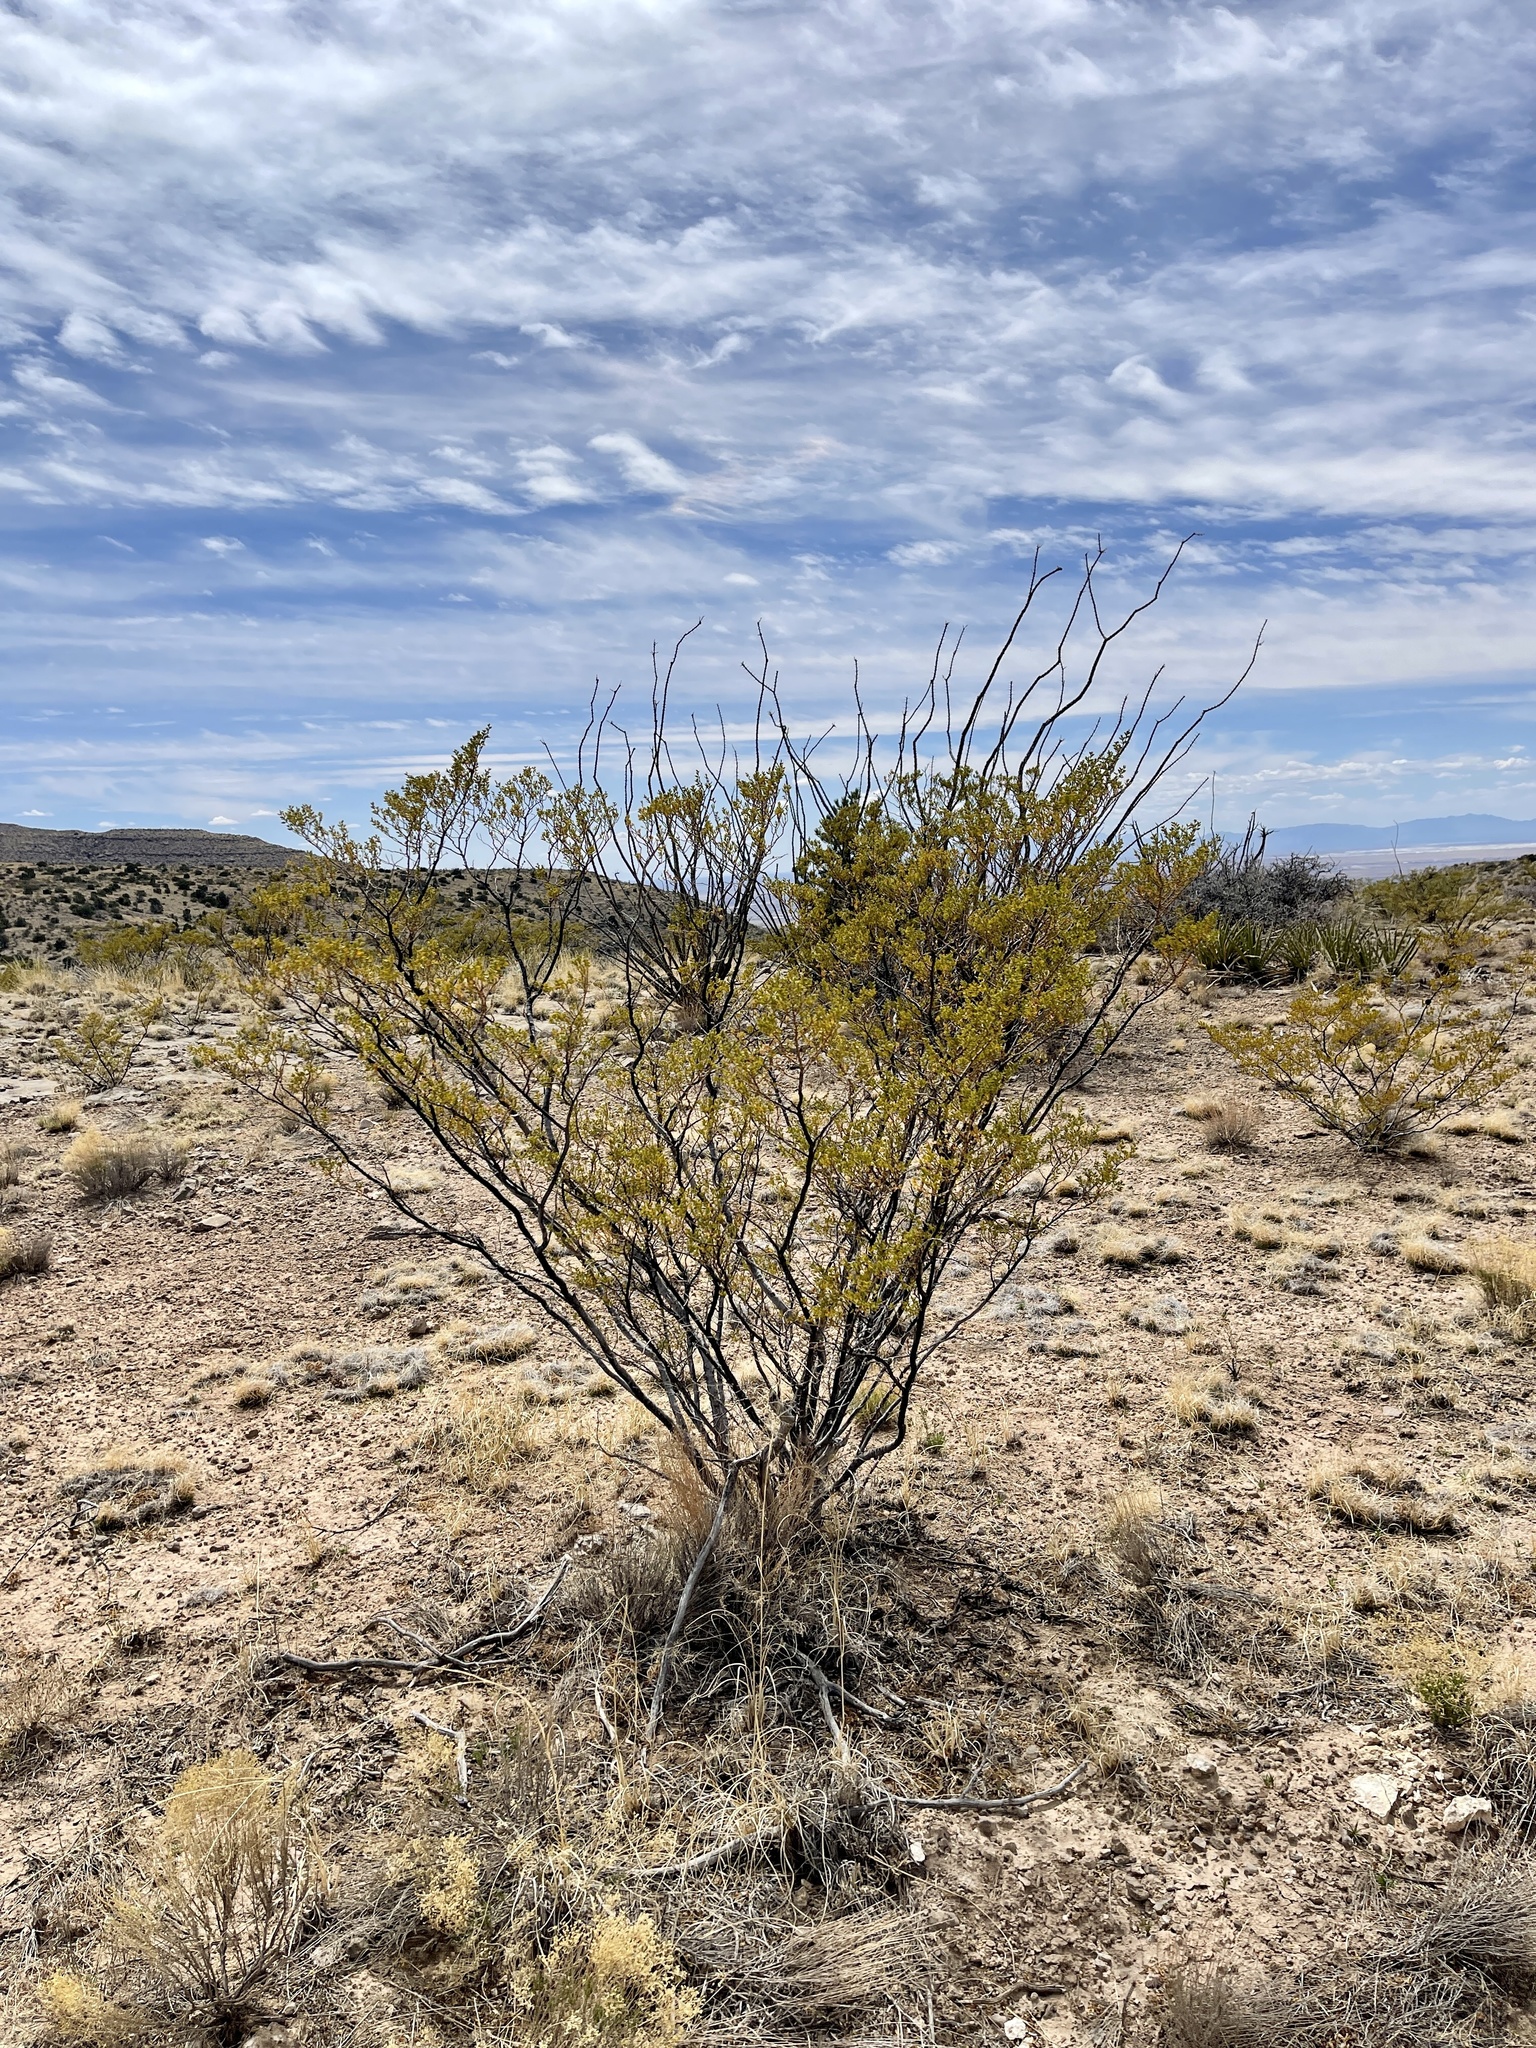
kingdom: Plantae
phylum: Tracheophyta
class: Magnoliopsida
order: Zygophyllales
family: Zygophyllaceae
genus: Larrea
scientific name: Larrea tridentata
